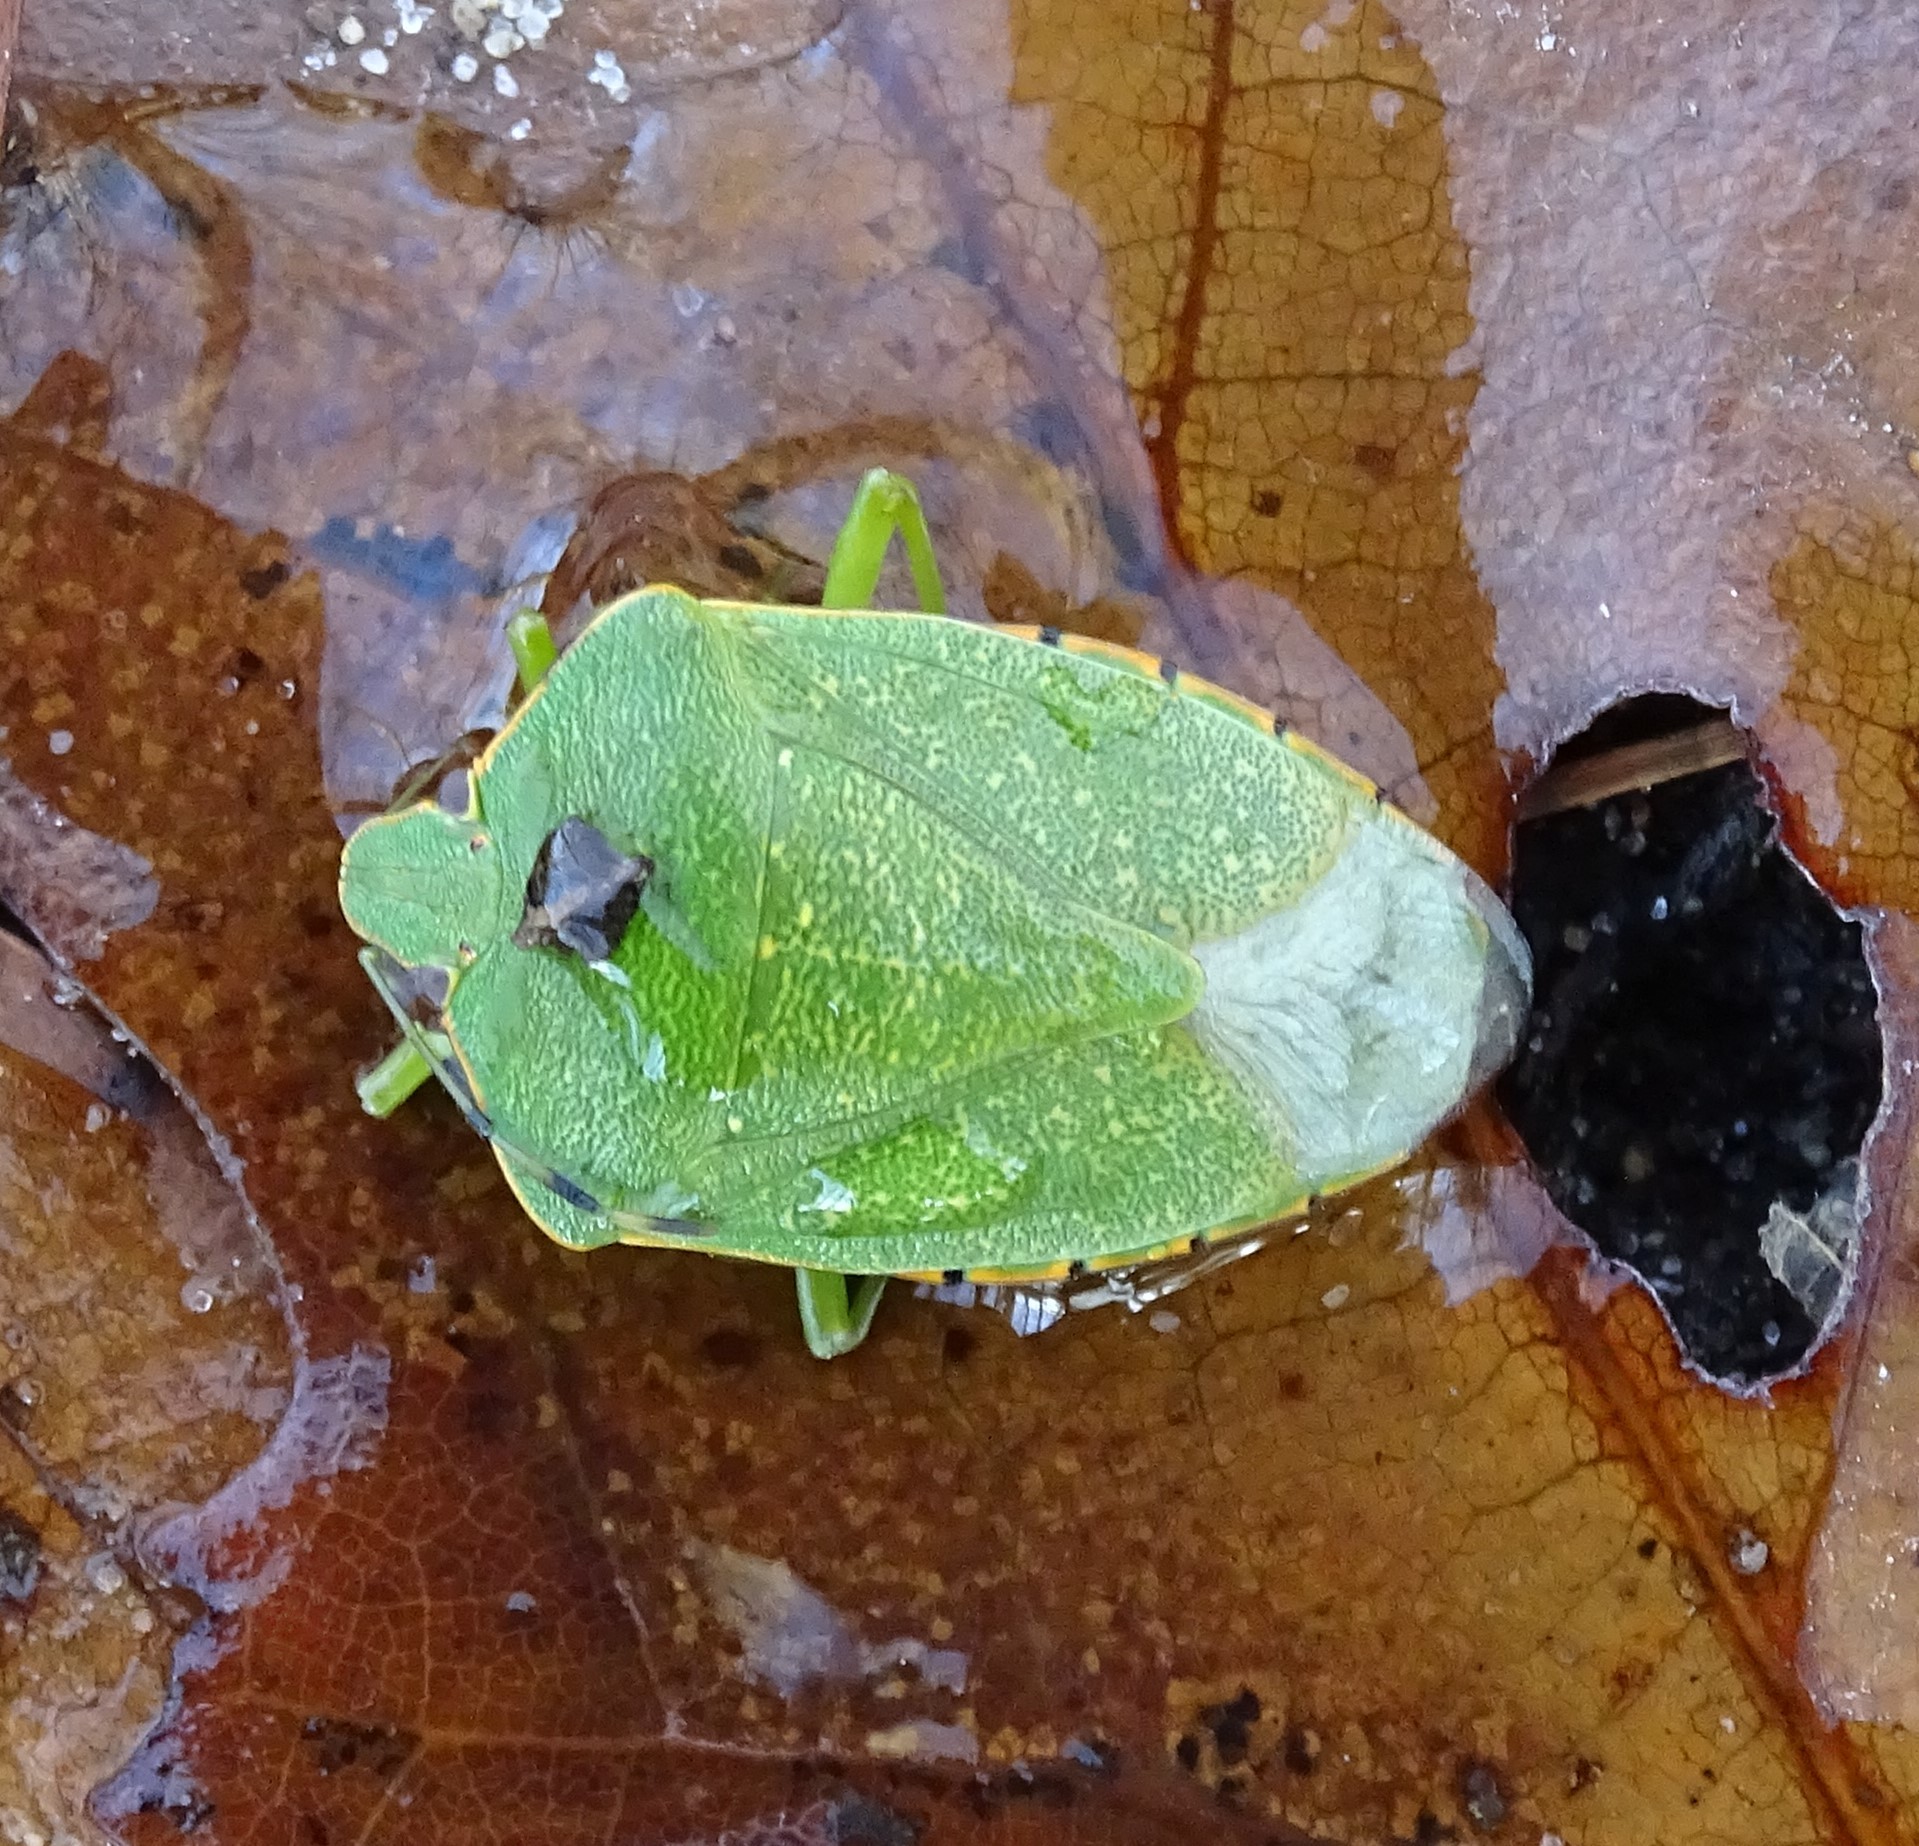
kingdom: Animalia
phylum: Arthropoda
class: Insecta
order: Hemiptera
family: Pentatomidae
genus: Chinavia
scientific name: Chinavia hilaris
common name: Green stink bug
